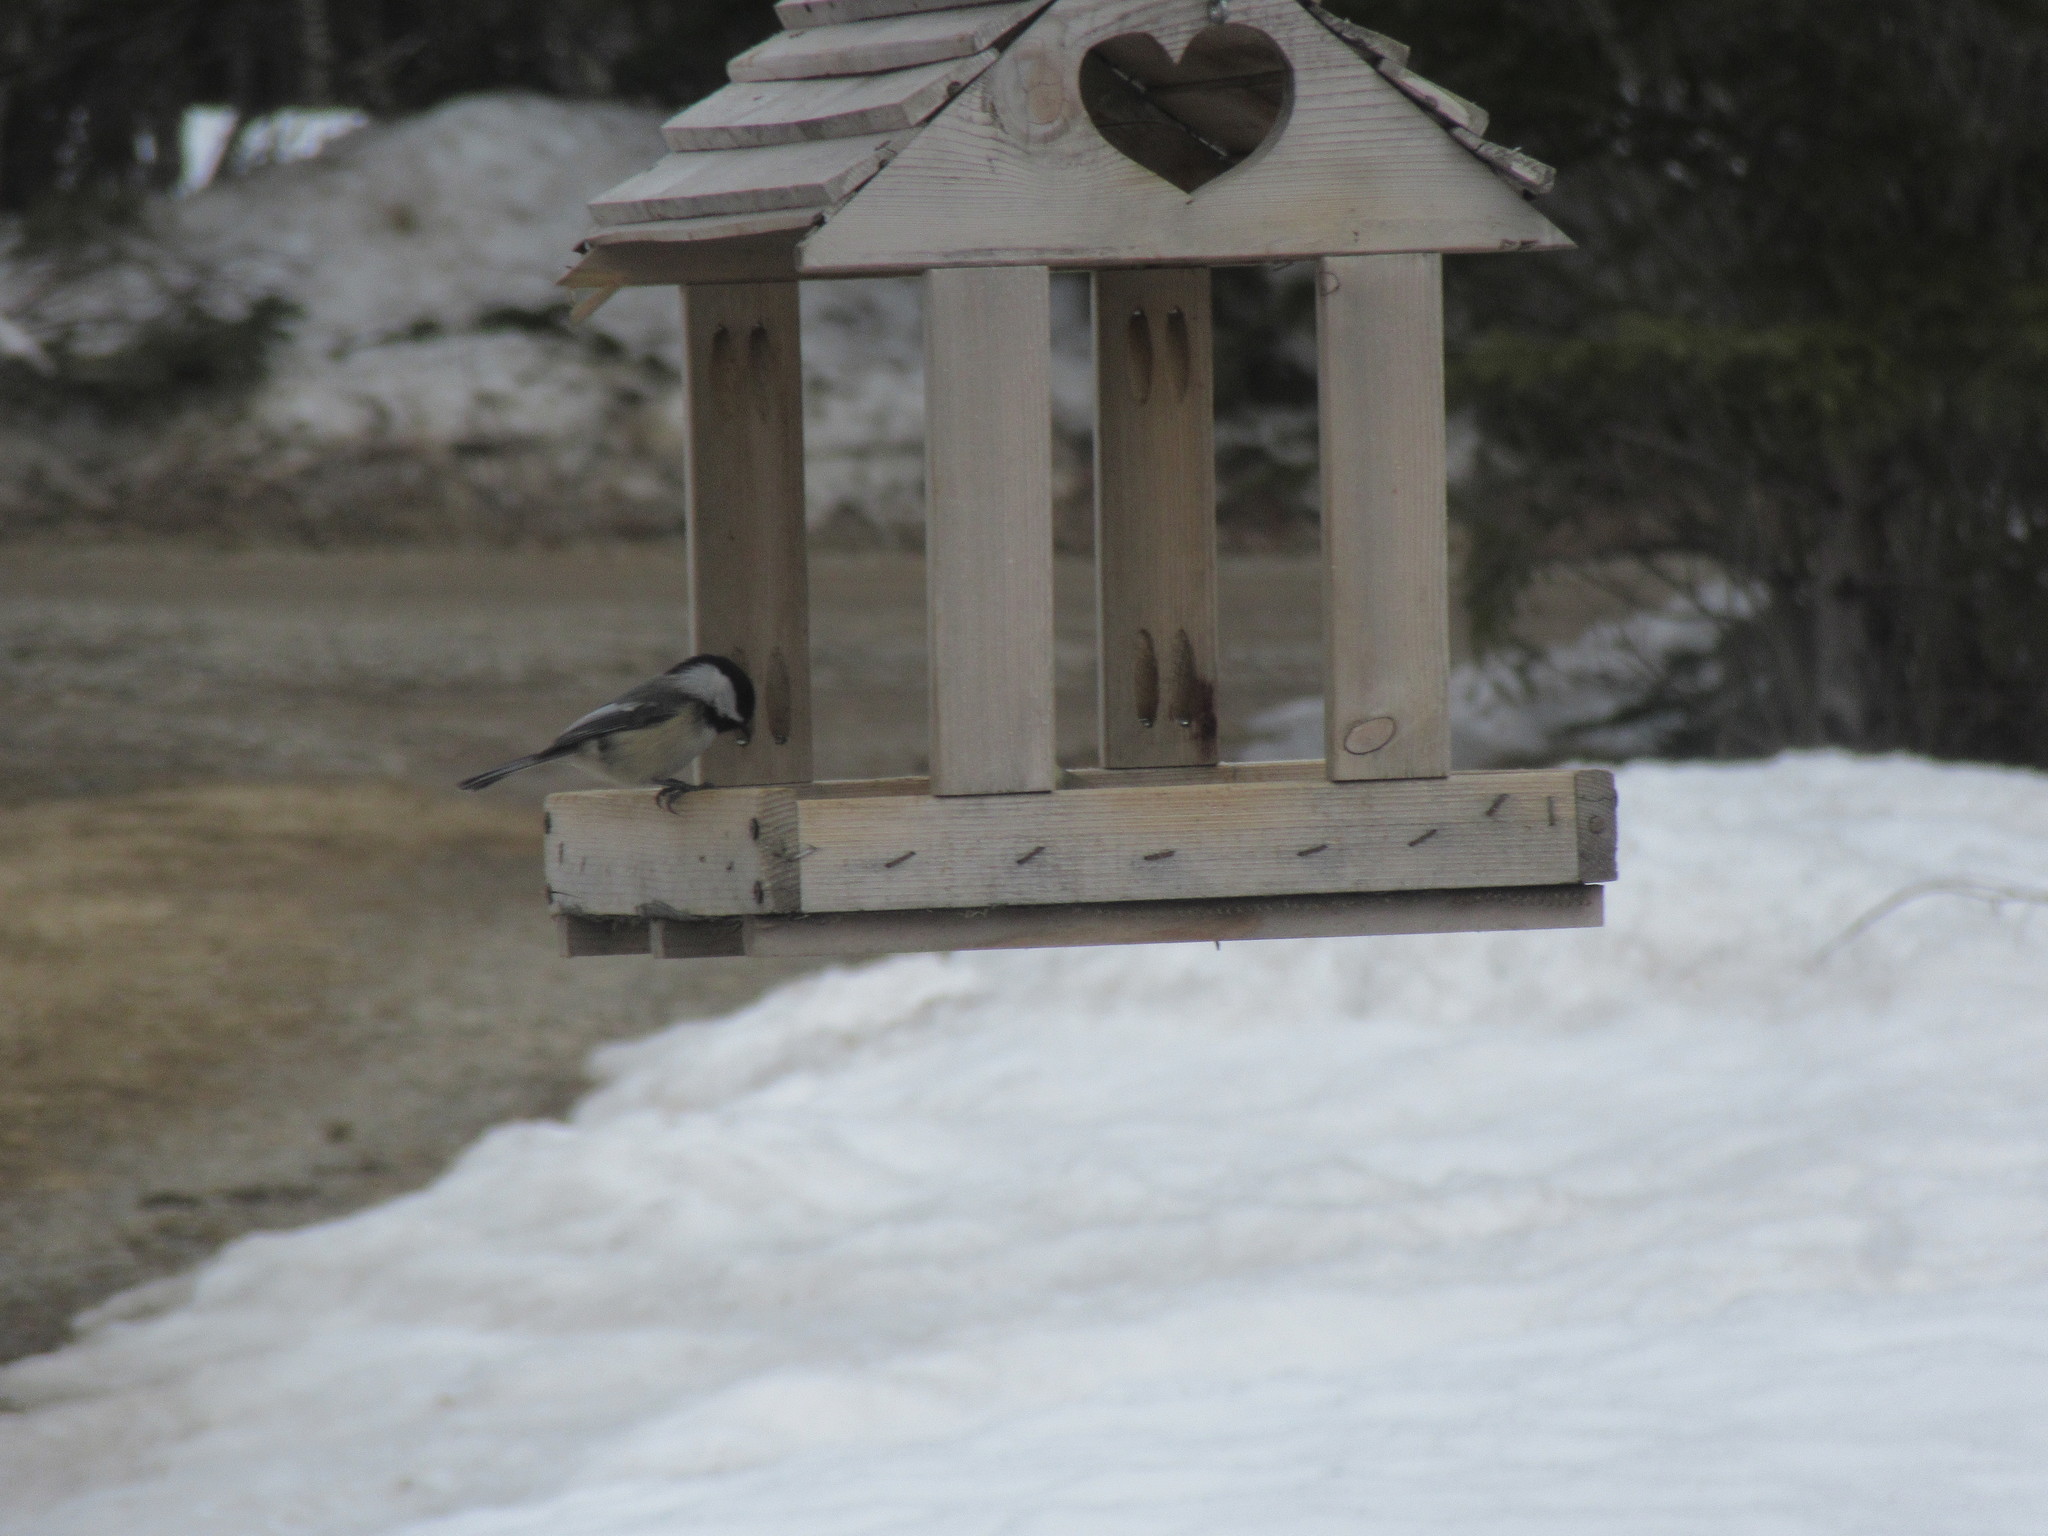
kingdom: Animalia
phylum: Chordata
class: Aves
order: Passeriformes
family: Paridae
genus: Poecile
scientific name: Poecile atricapillus
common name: Black-capped chickadee
